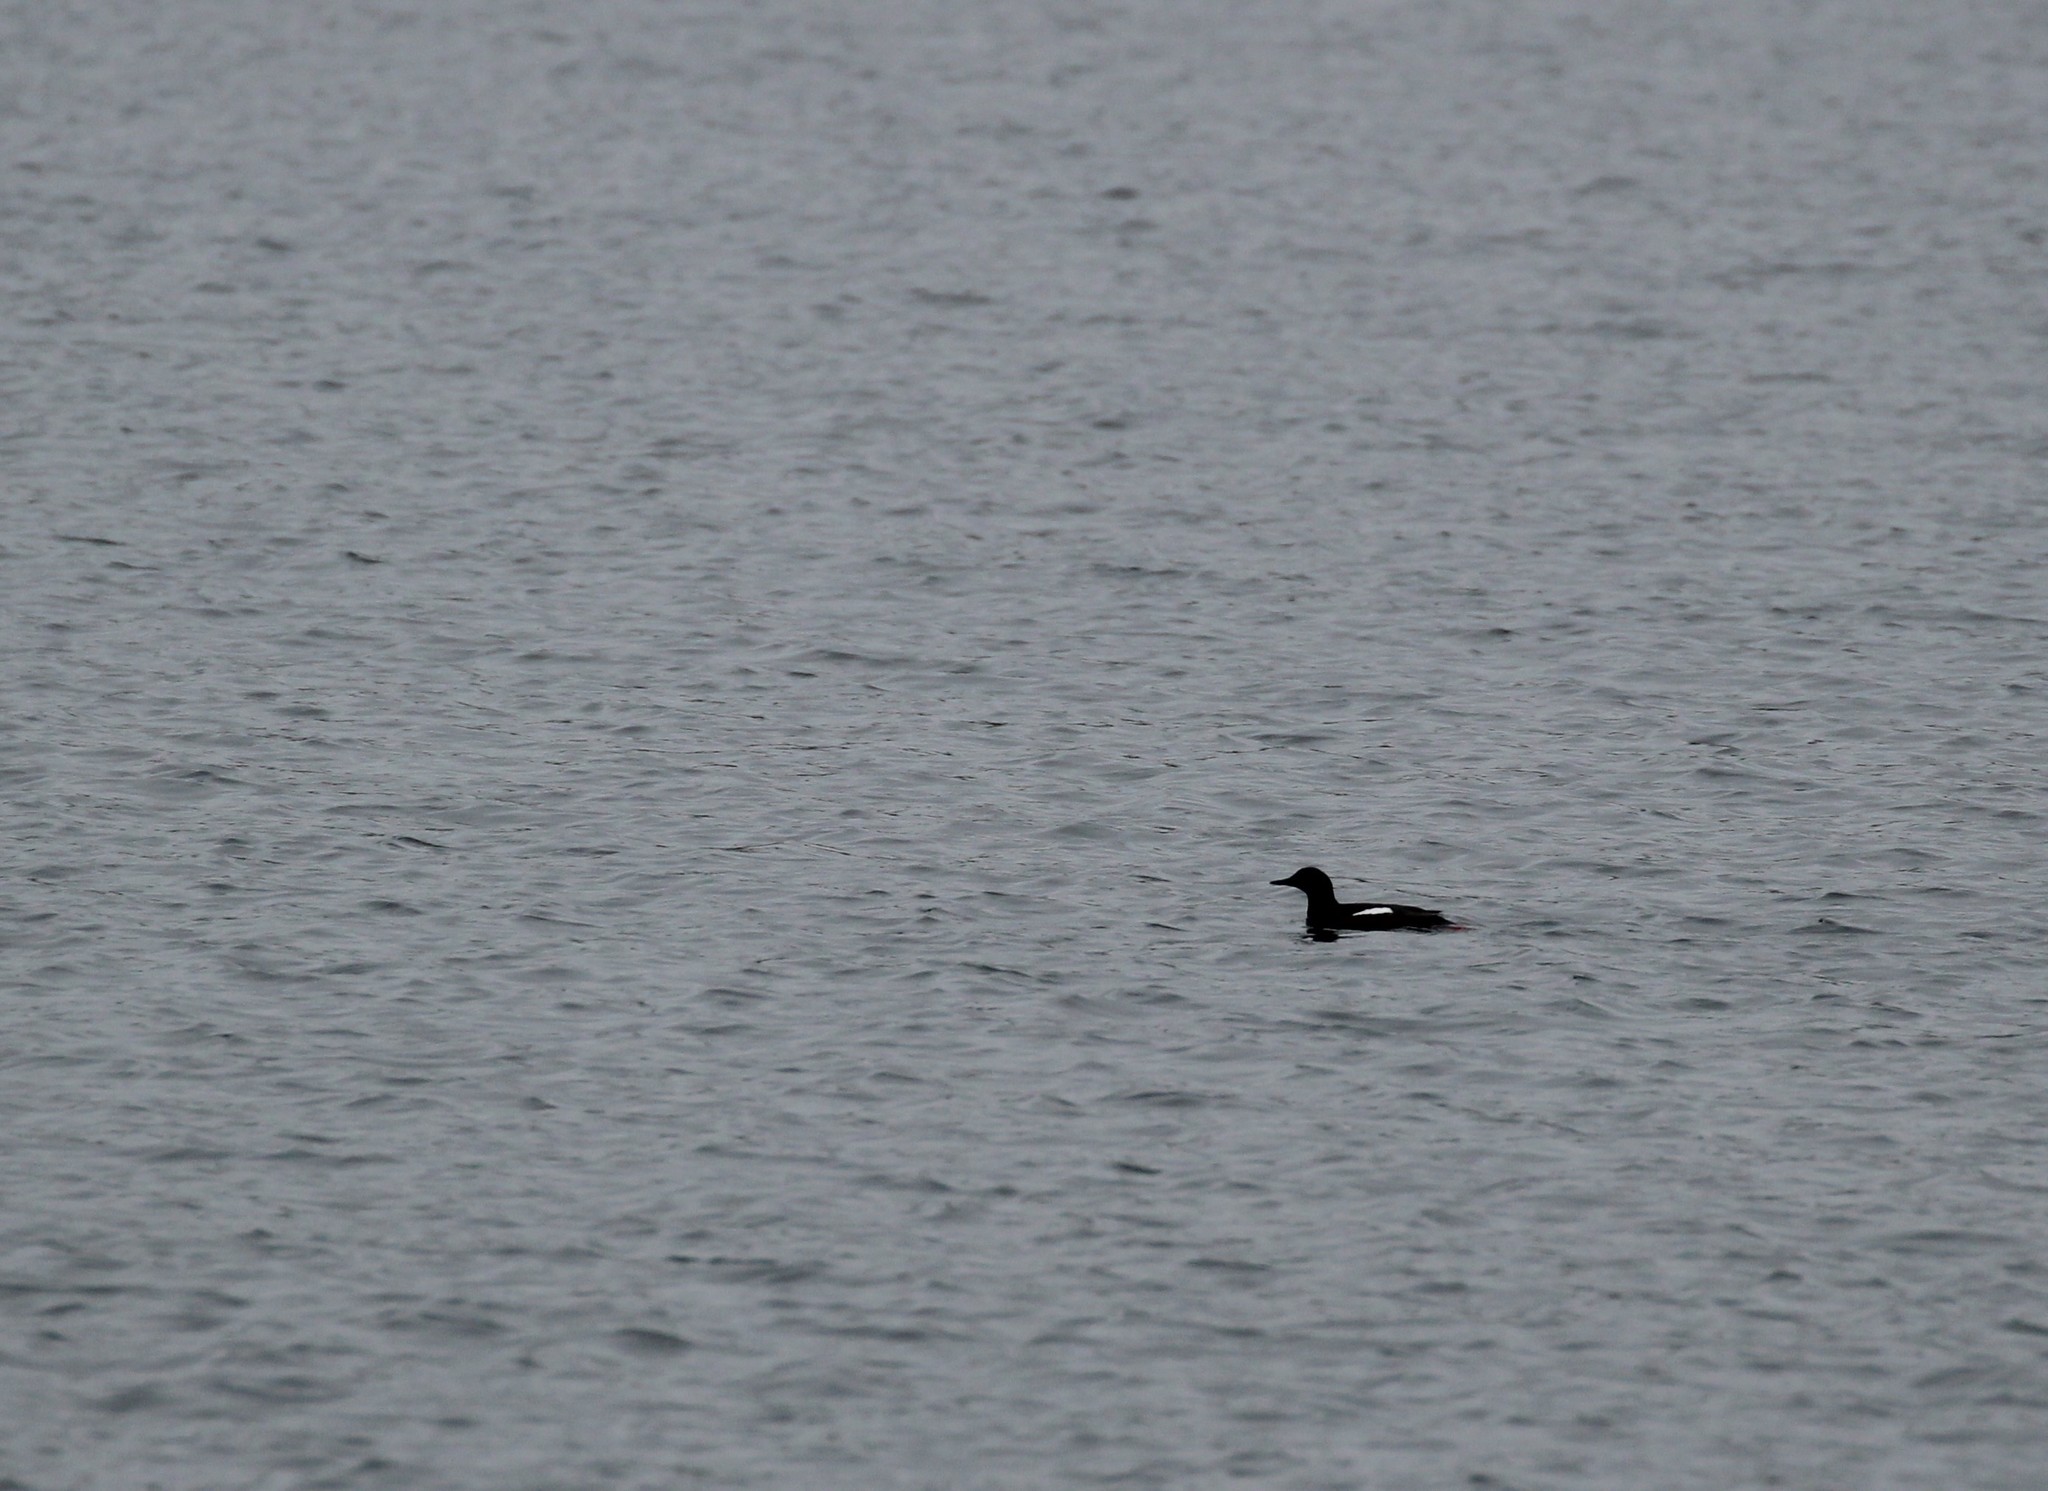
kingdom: Animalia
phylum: Chordata
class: Aves
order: Charadriiformes
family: Alcidae
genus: Cepphus
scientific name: Cepphus grylle
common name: Black guillemot
